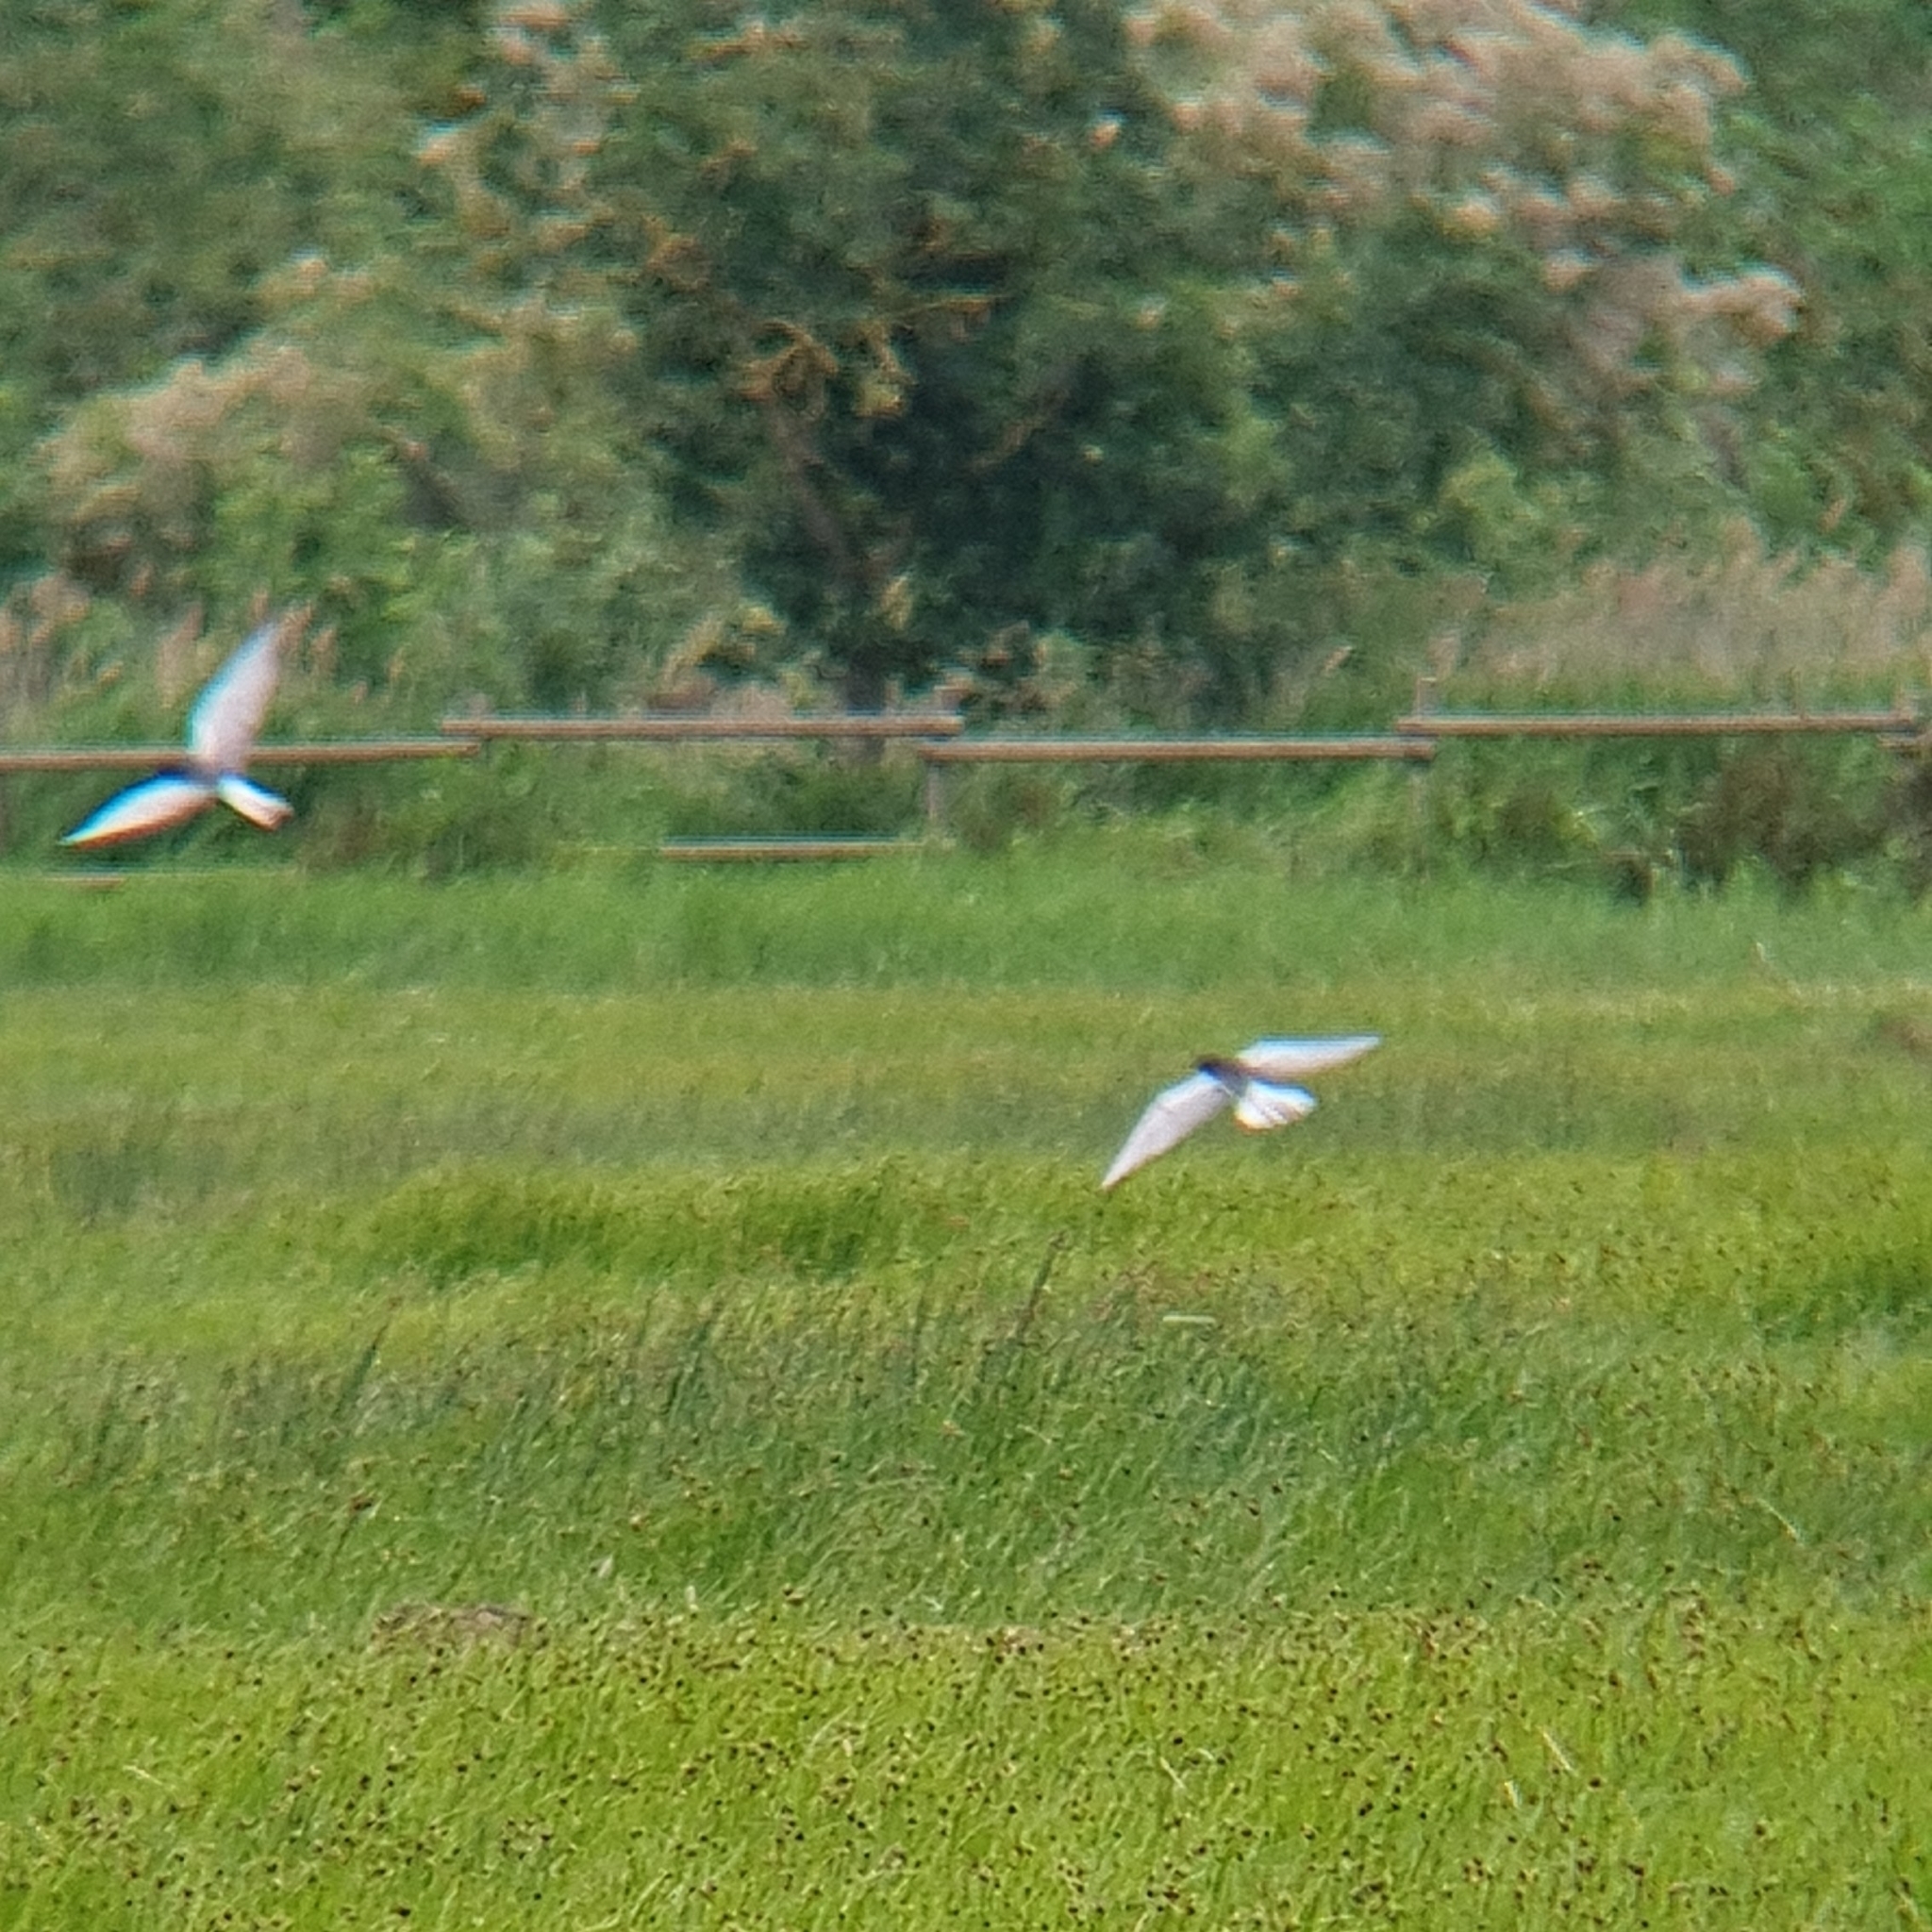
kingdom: Animalia
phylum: Chordata
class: Aves
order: Charadriiformes
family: Laridae
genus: Chlidonias
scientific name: Chlidonias leucopterus
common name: White-winged tern
